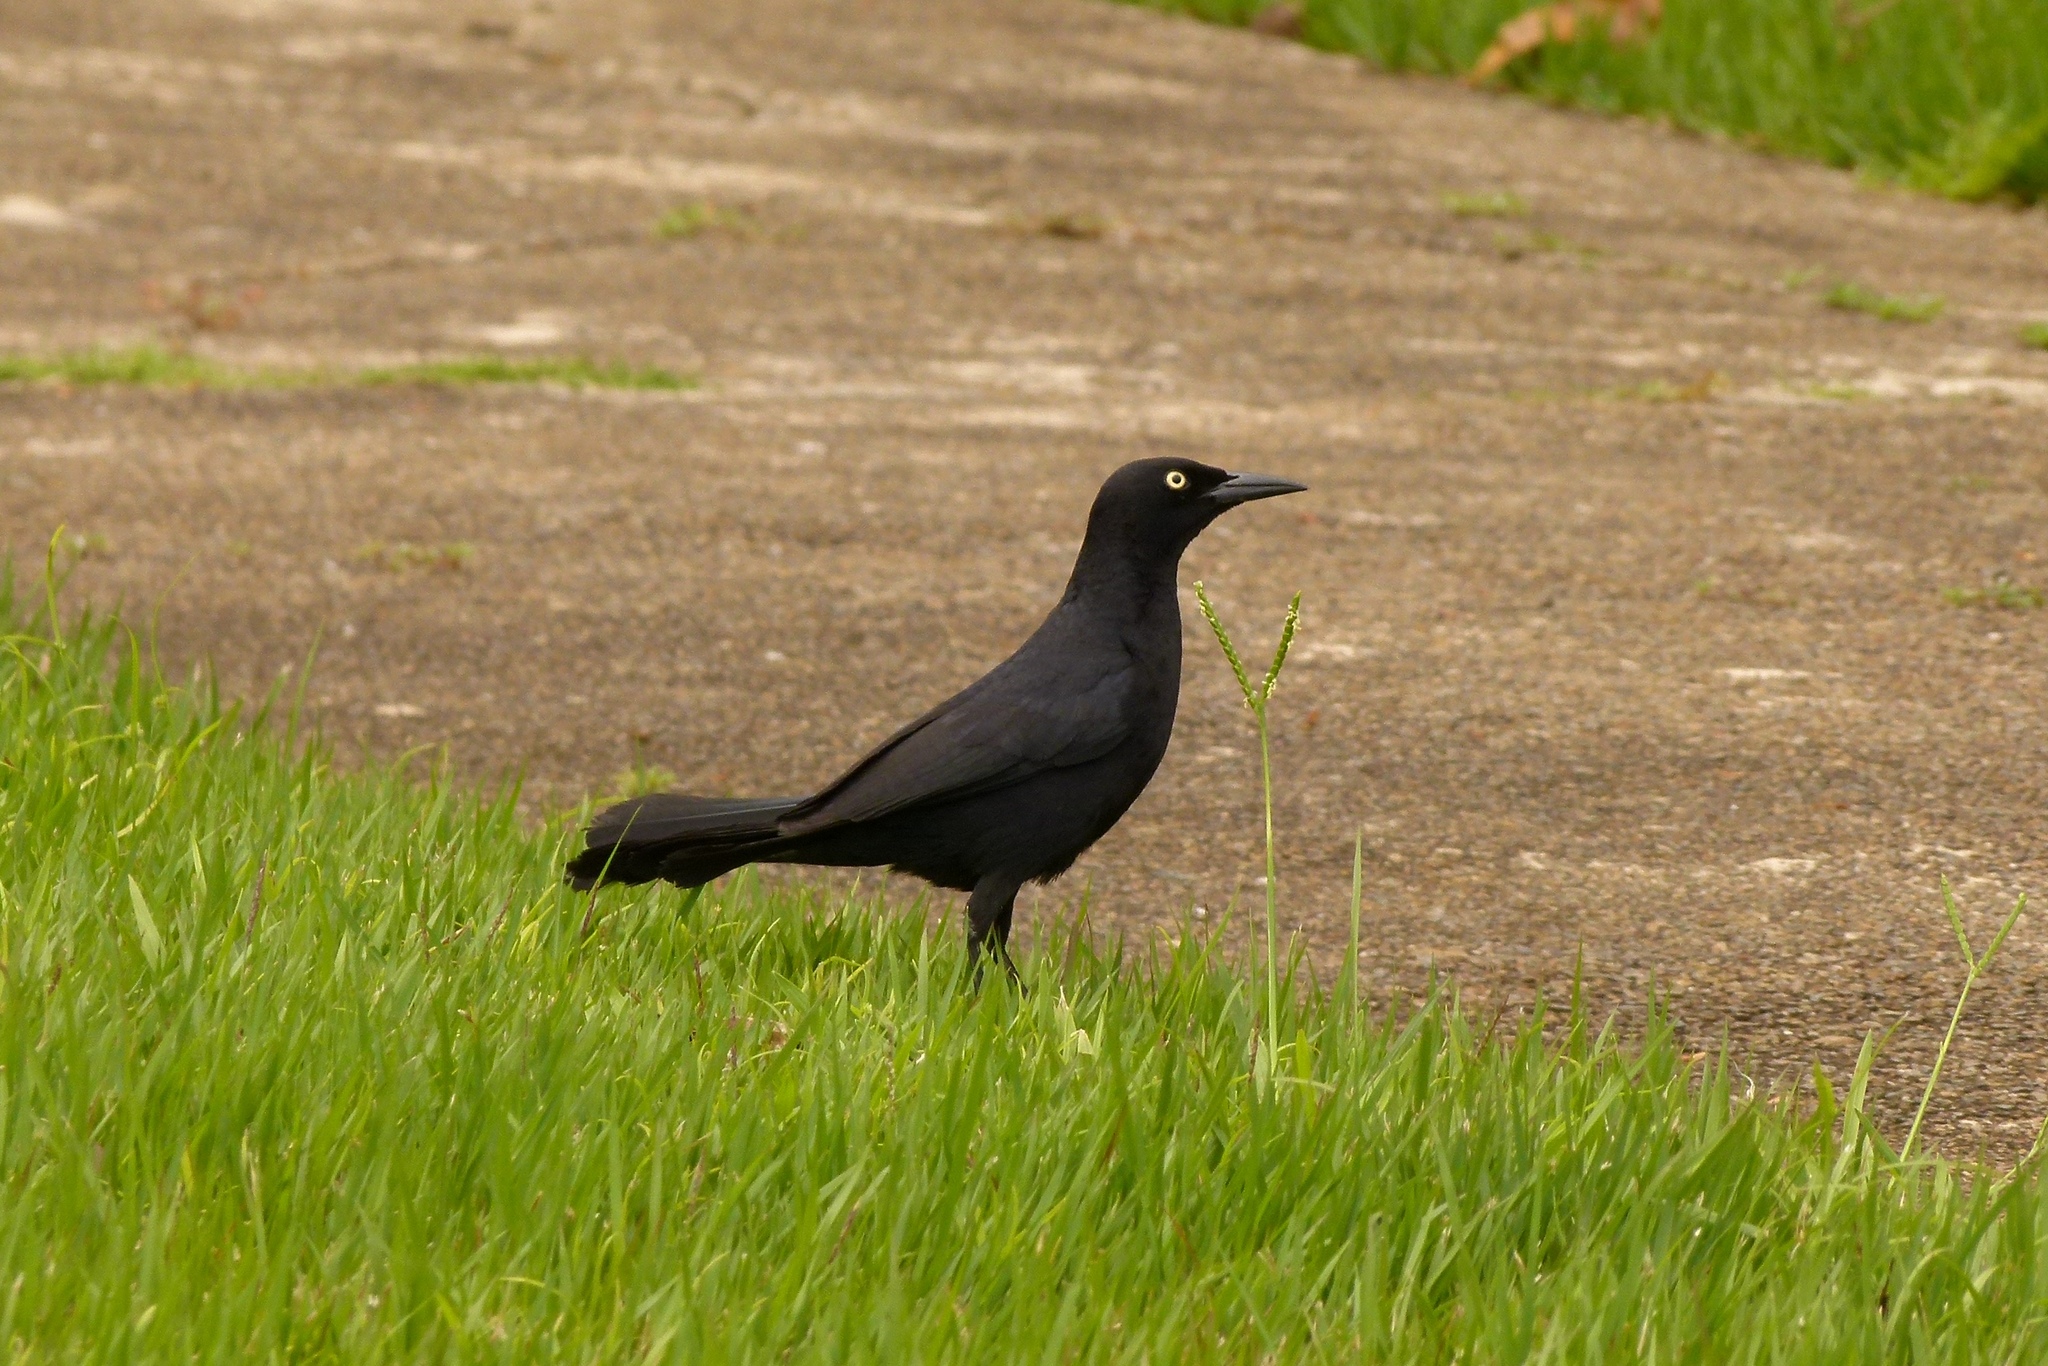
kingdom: Animalia
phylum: Chordata
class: Aves
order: Passeriformes
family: Icteridae
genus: Quiscalus
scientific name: Quiscalus niger
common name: Greater antillean grackle
